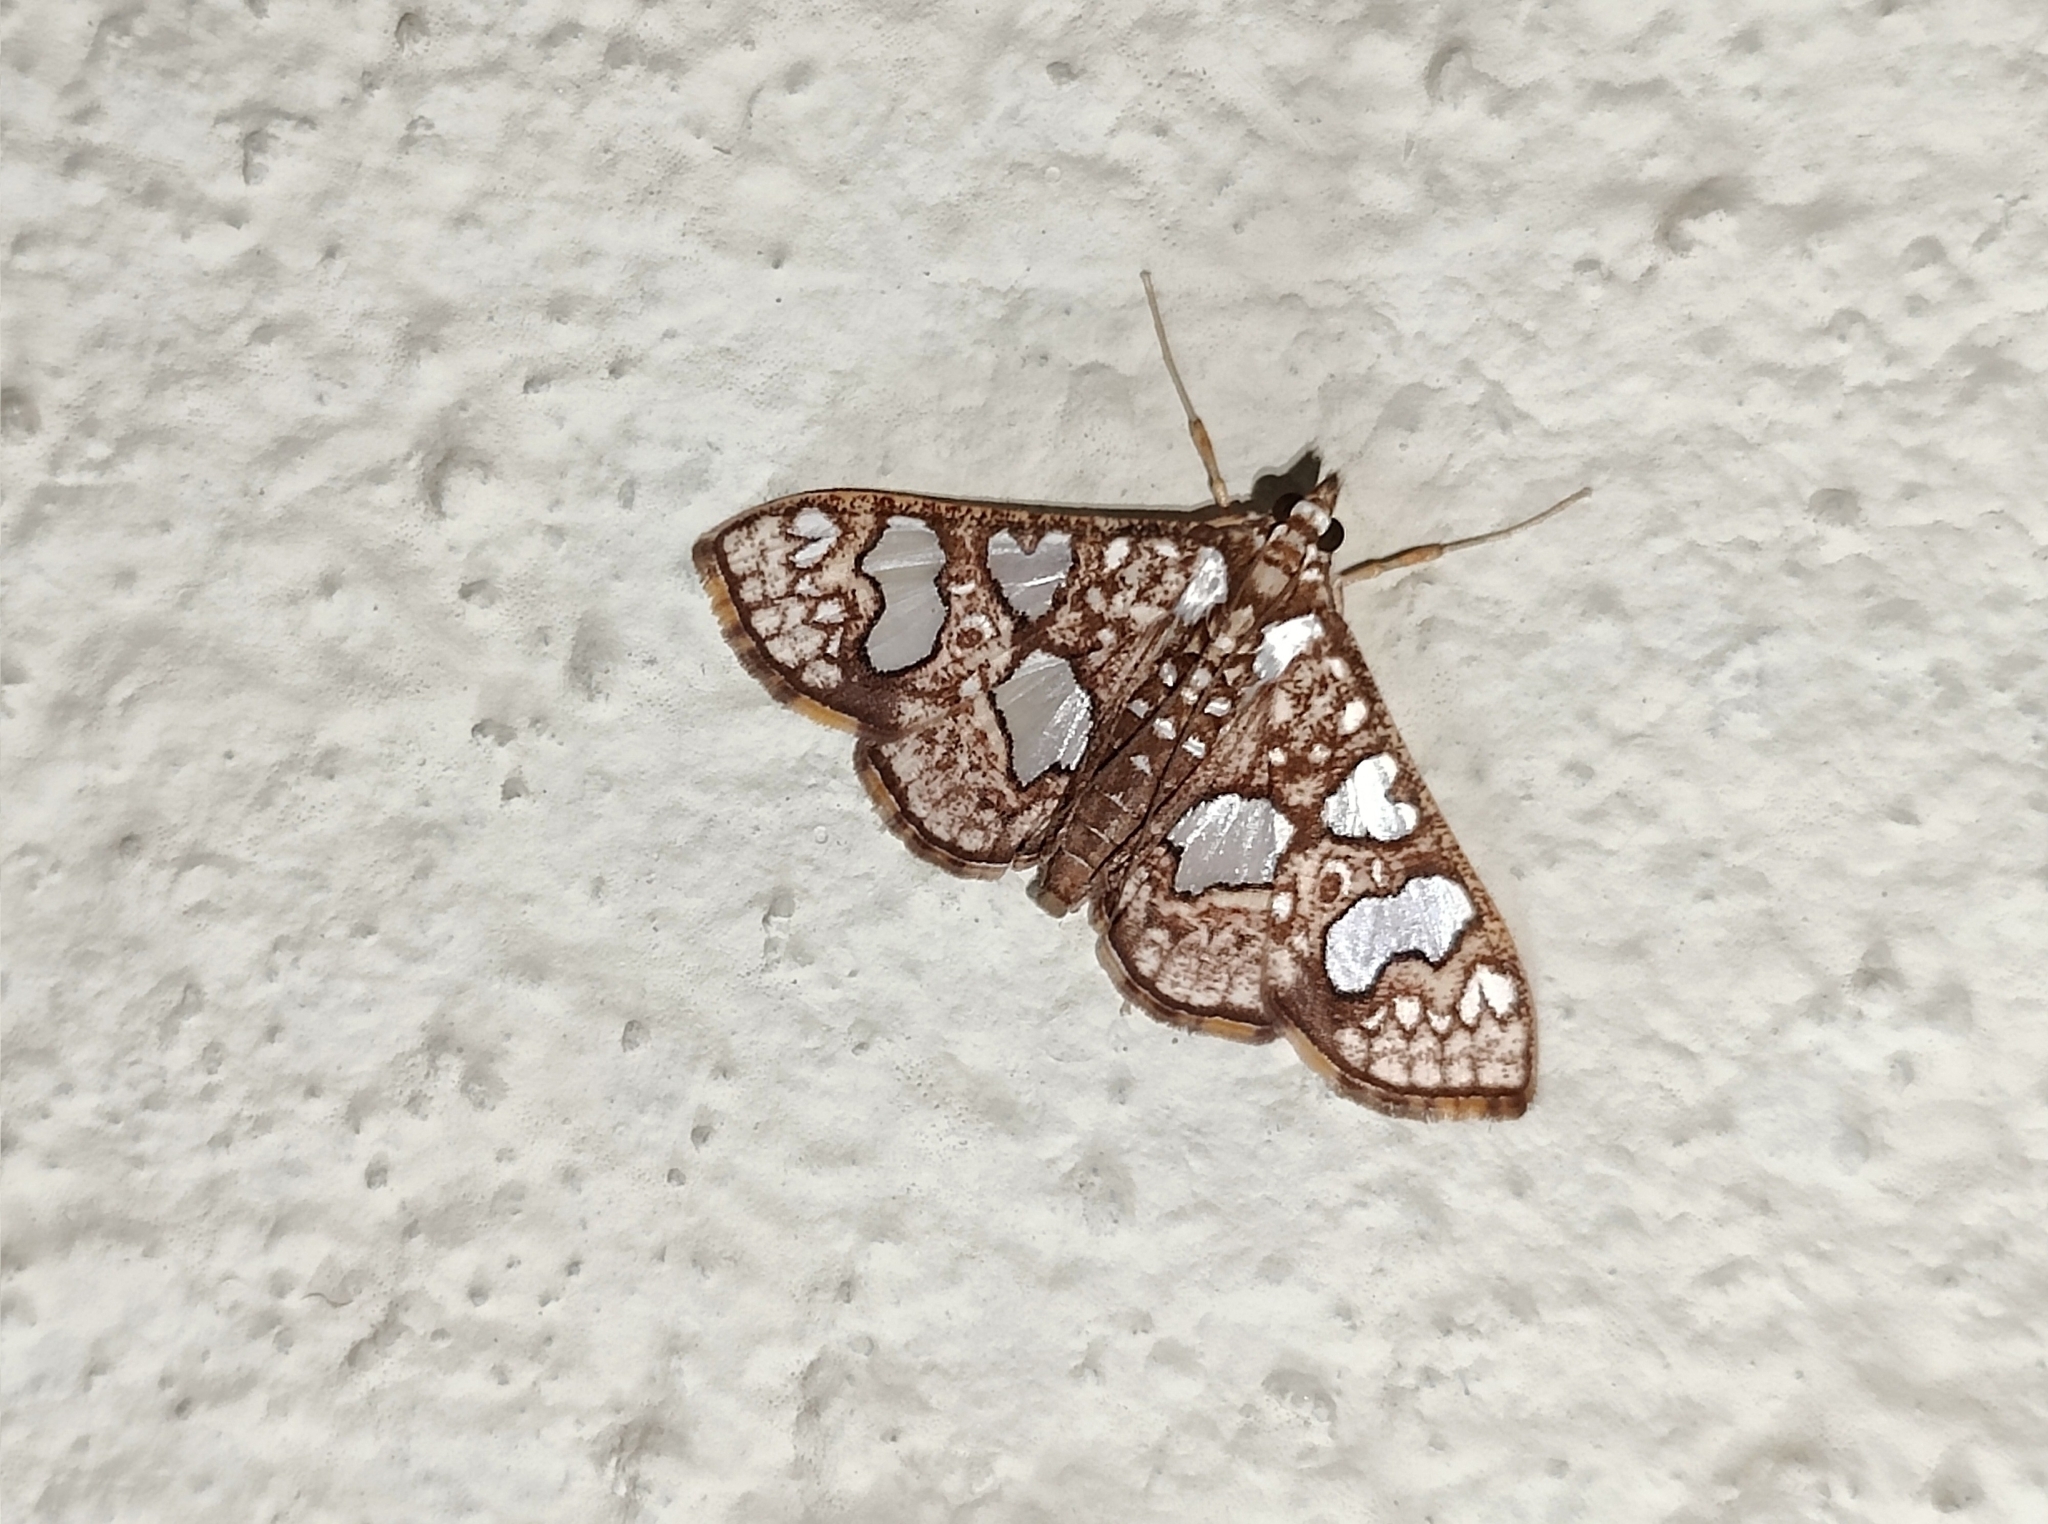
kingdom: Animalia
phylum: Arthropoda
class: Insecta
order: Lepidoptera
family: Crambidae
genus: Glyphodes
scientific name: Glyphodes canthusalis
